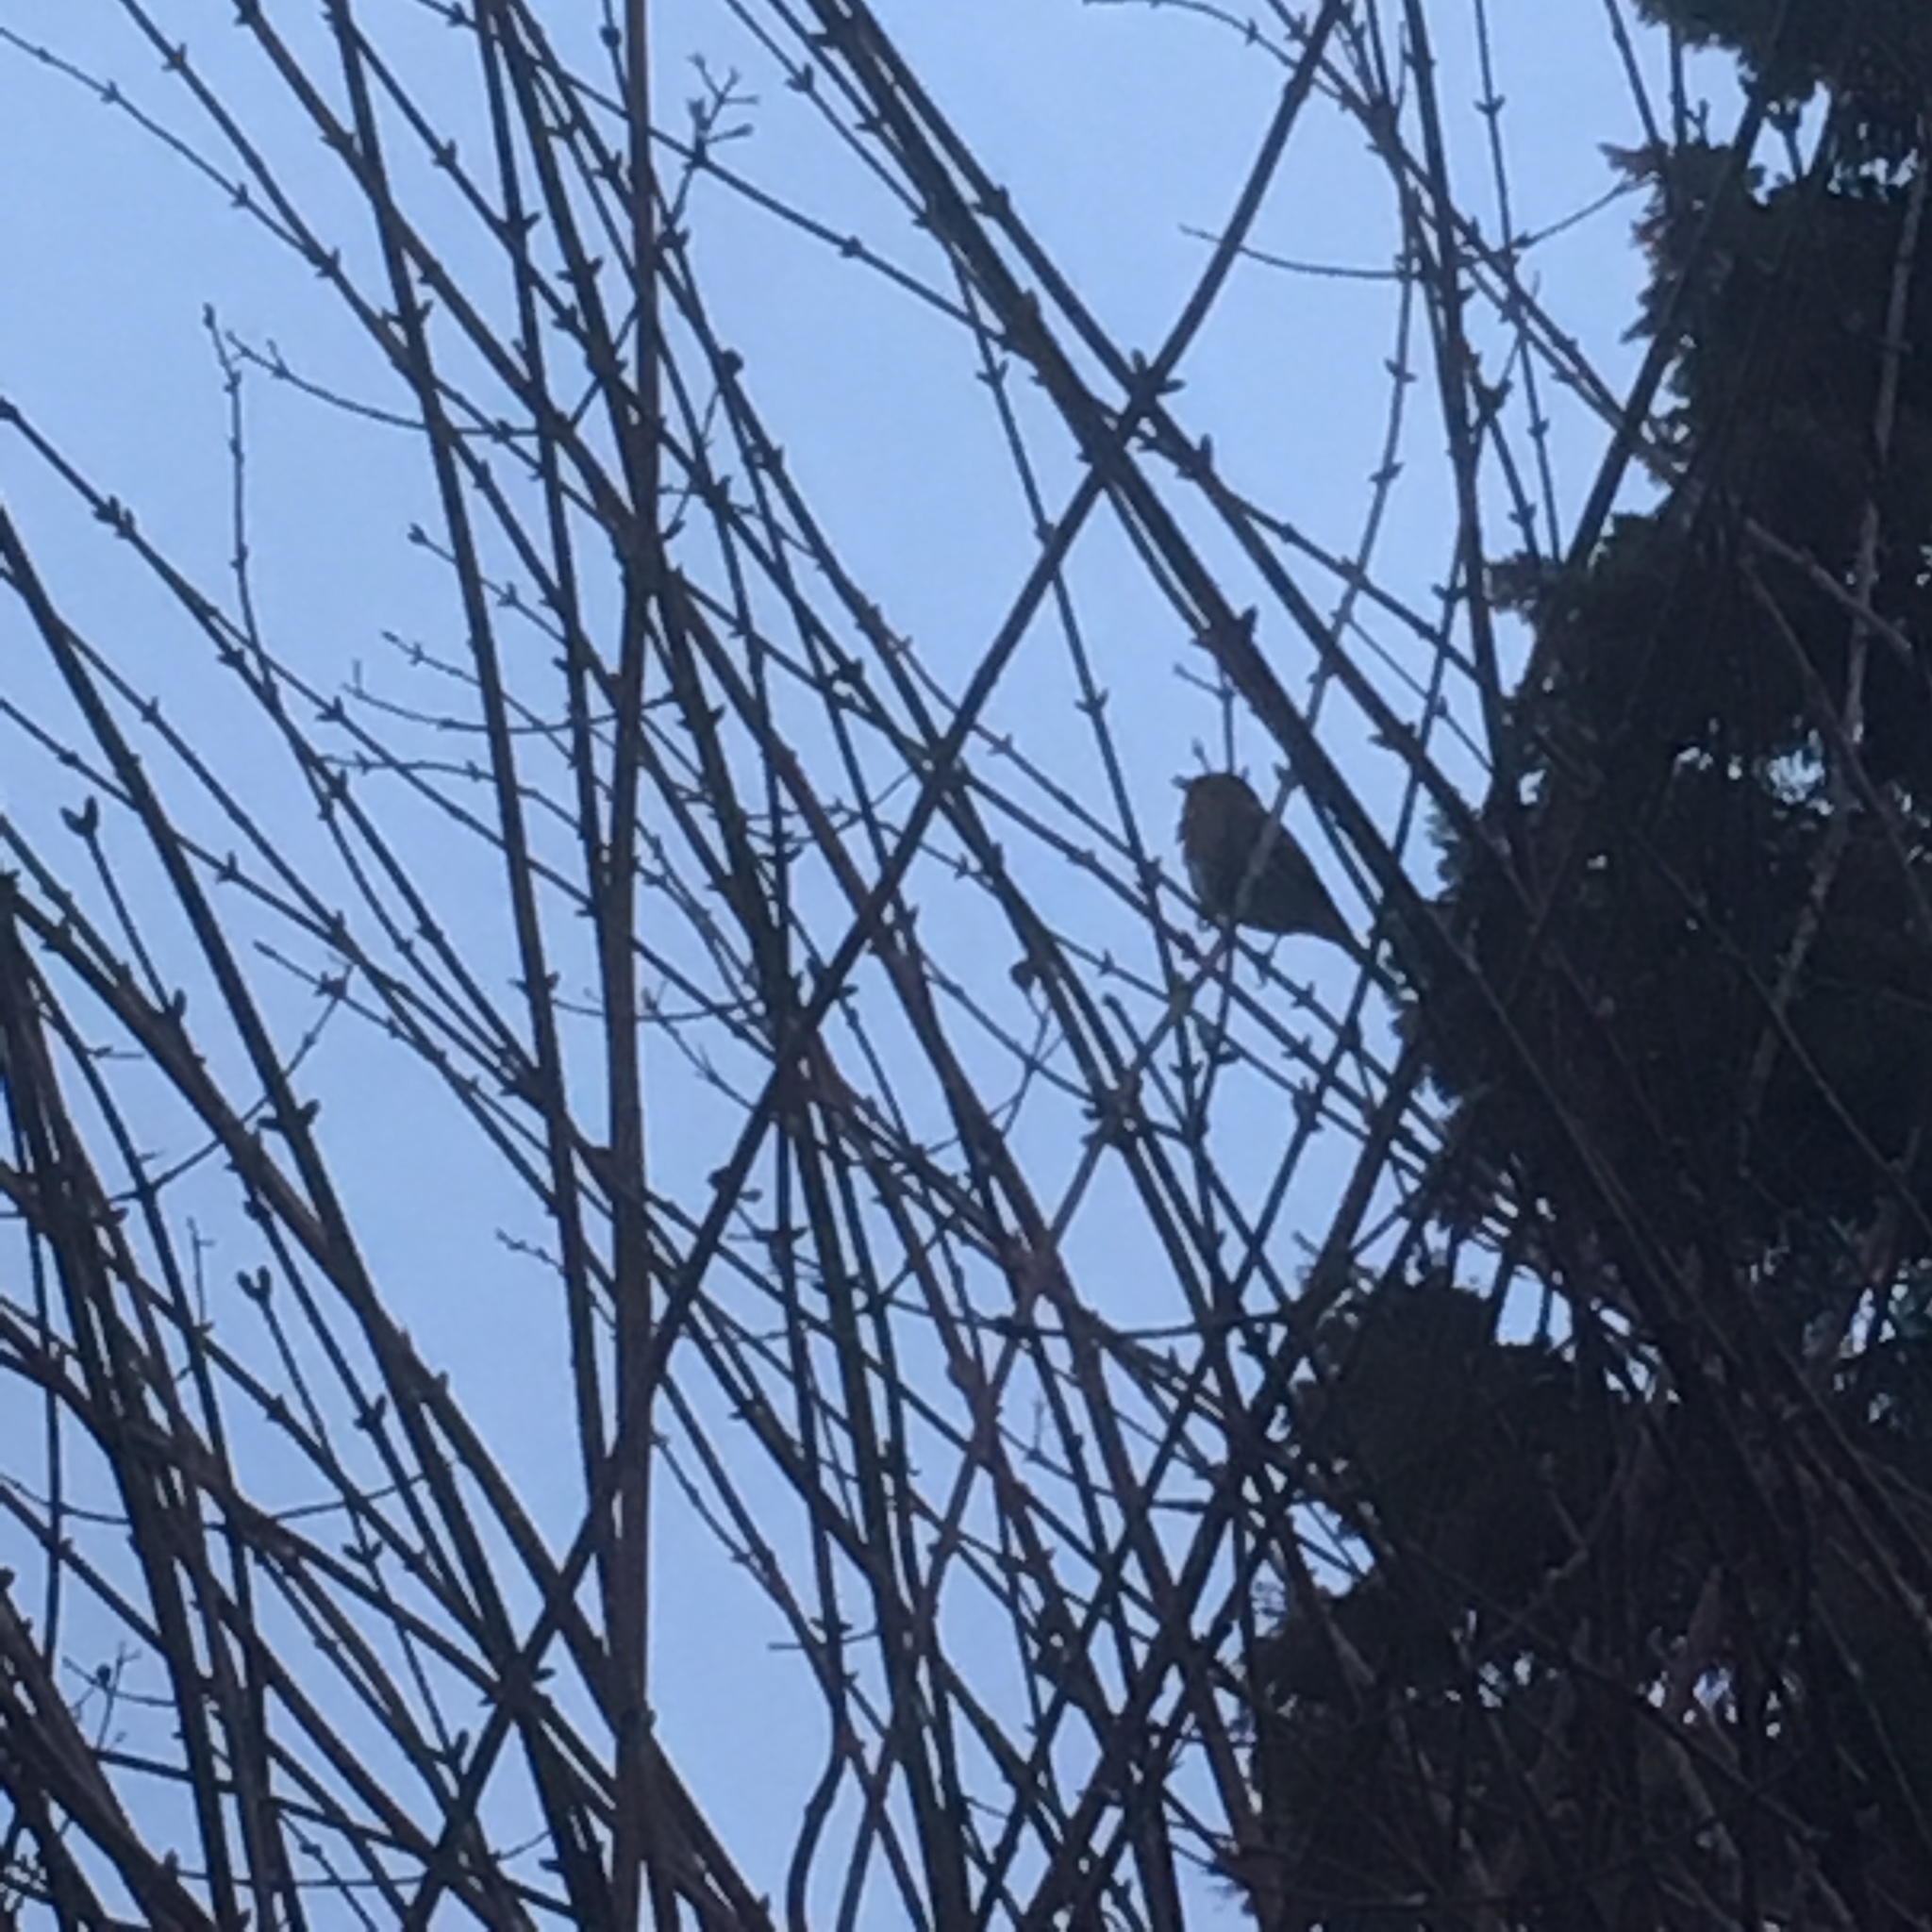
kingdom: Animalia
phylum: Chordata
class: Aves
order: Passeriformes
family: Muscicapidae
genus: Erithacus
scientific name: Erithacus rubecula
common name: European robin
